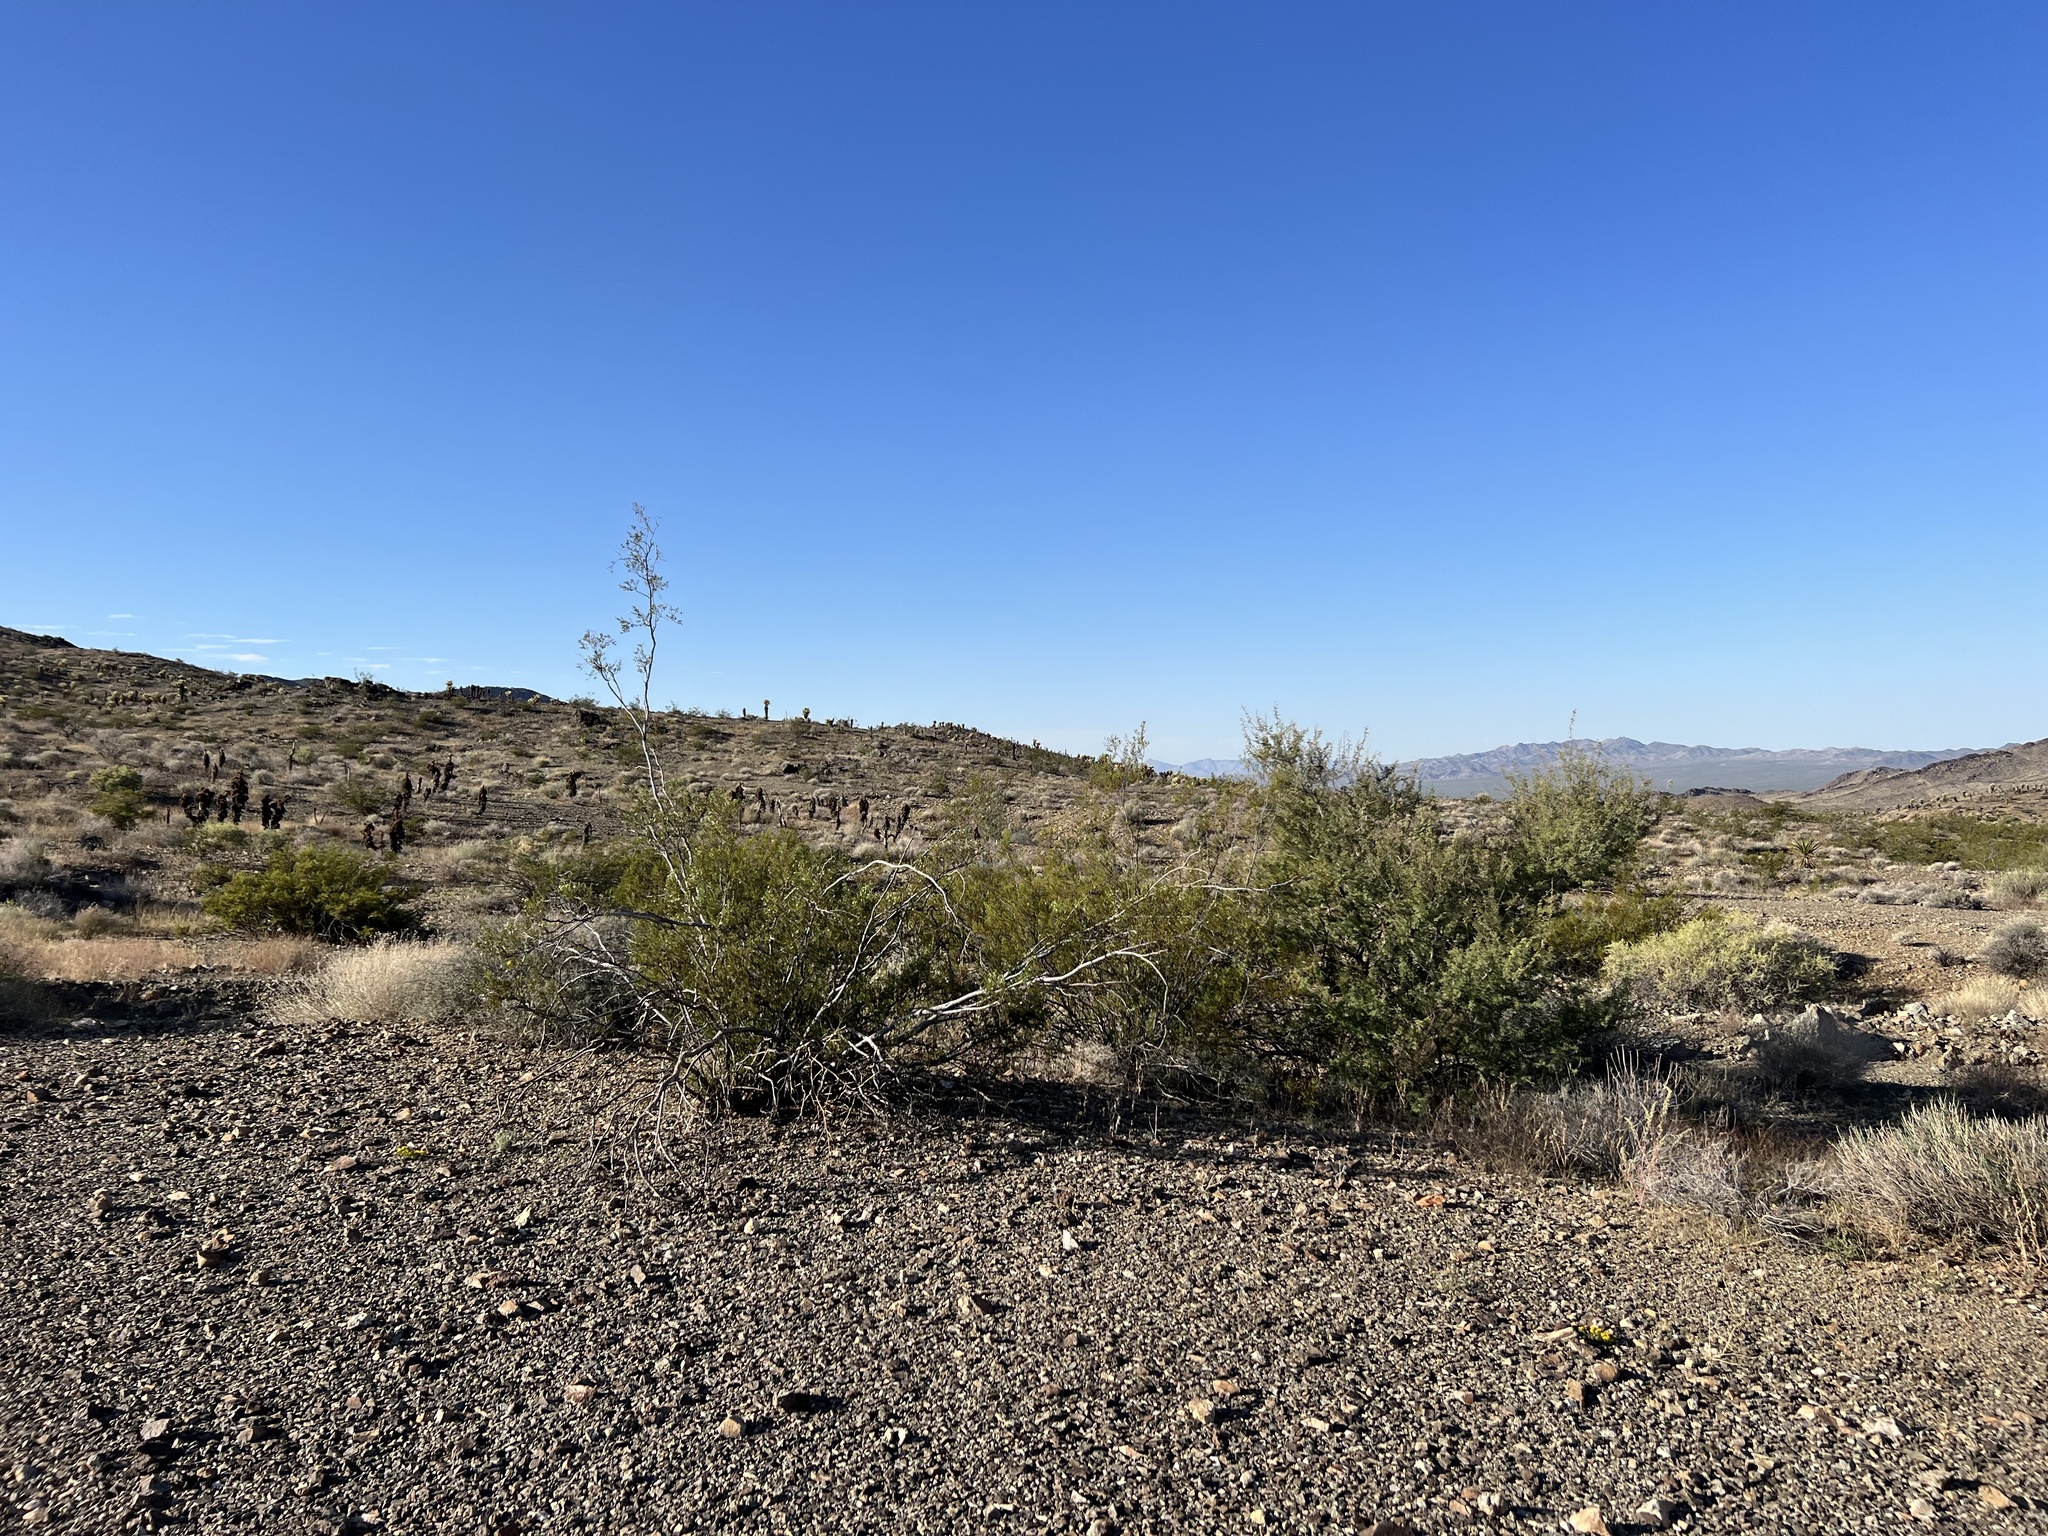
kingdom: Plantae
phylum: Tracheophyta
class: Magnoliopsida
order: Zygophyllales
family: Zygophyllaceae
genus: Larrea
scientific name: Larrea tridentata
